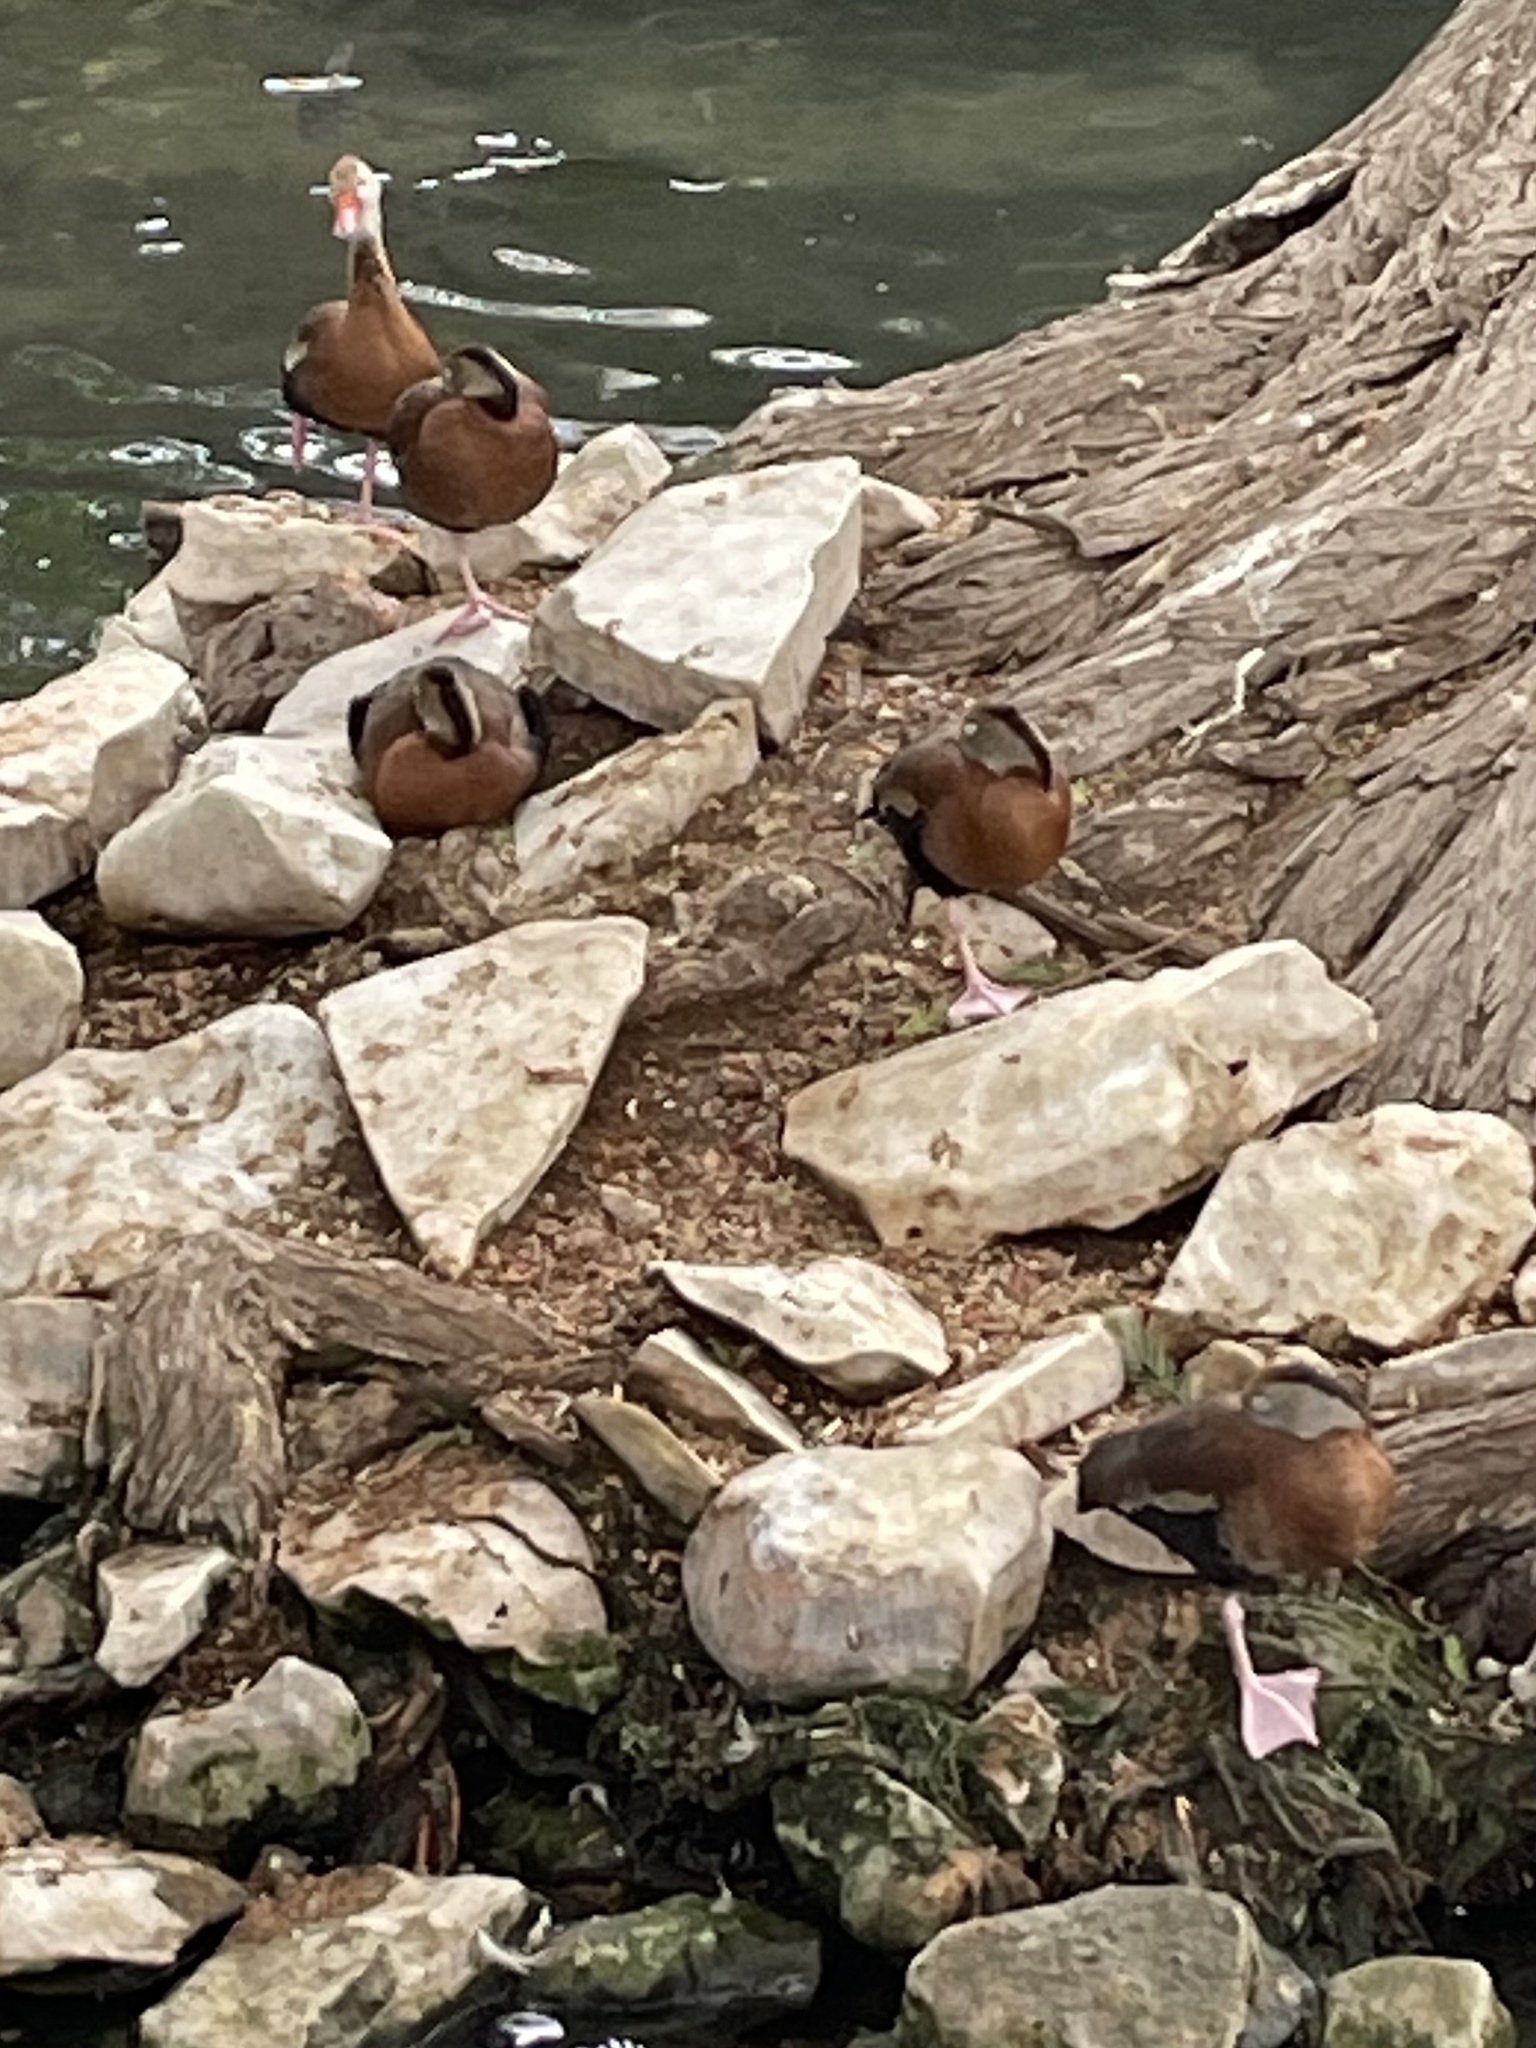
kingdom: Animalia
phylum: Chordata
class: Aves
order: Anseriformes
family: Anatidae
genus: Dendrocygna
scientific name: Dendrocygna autumnalis
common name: Black-bellied whistling duck
